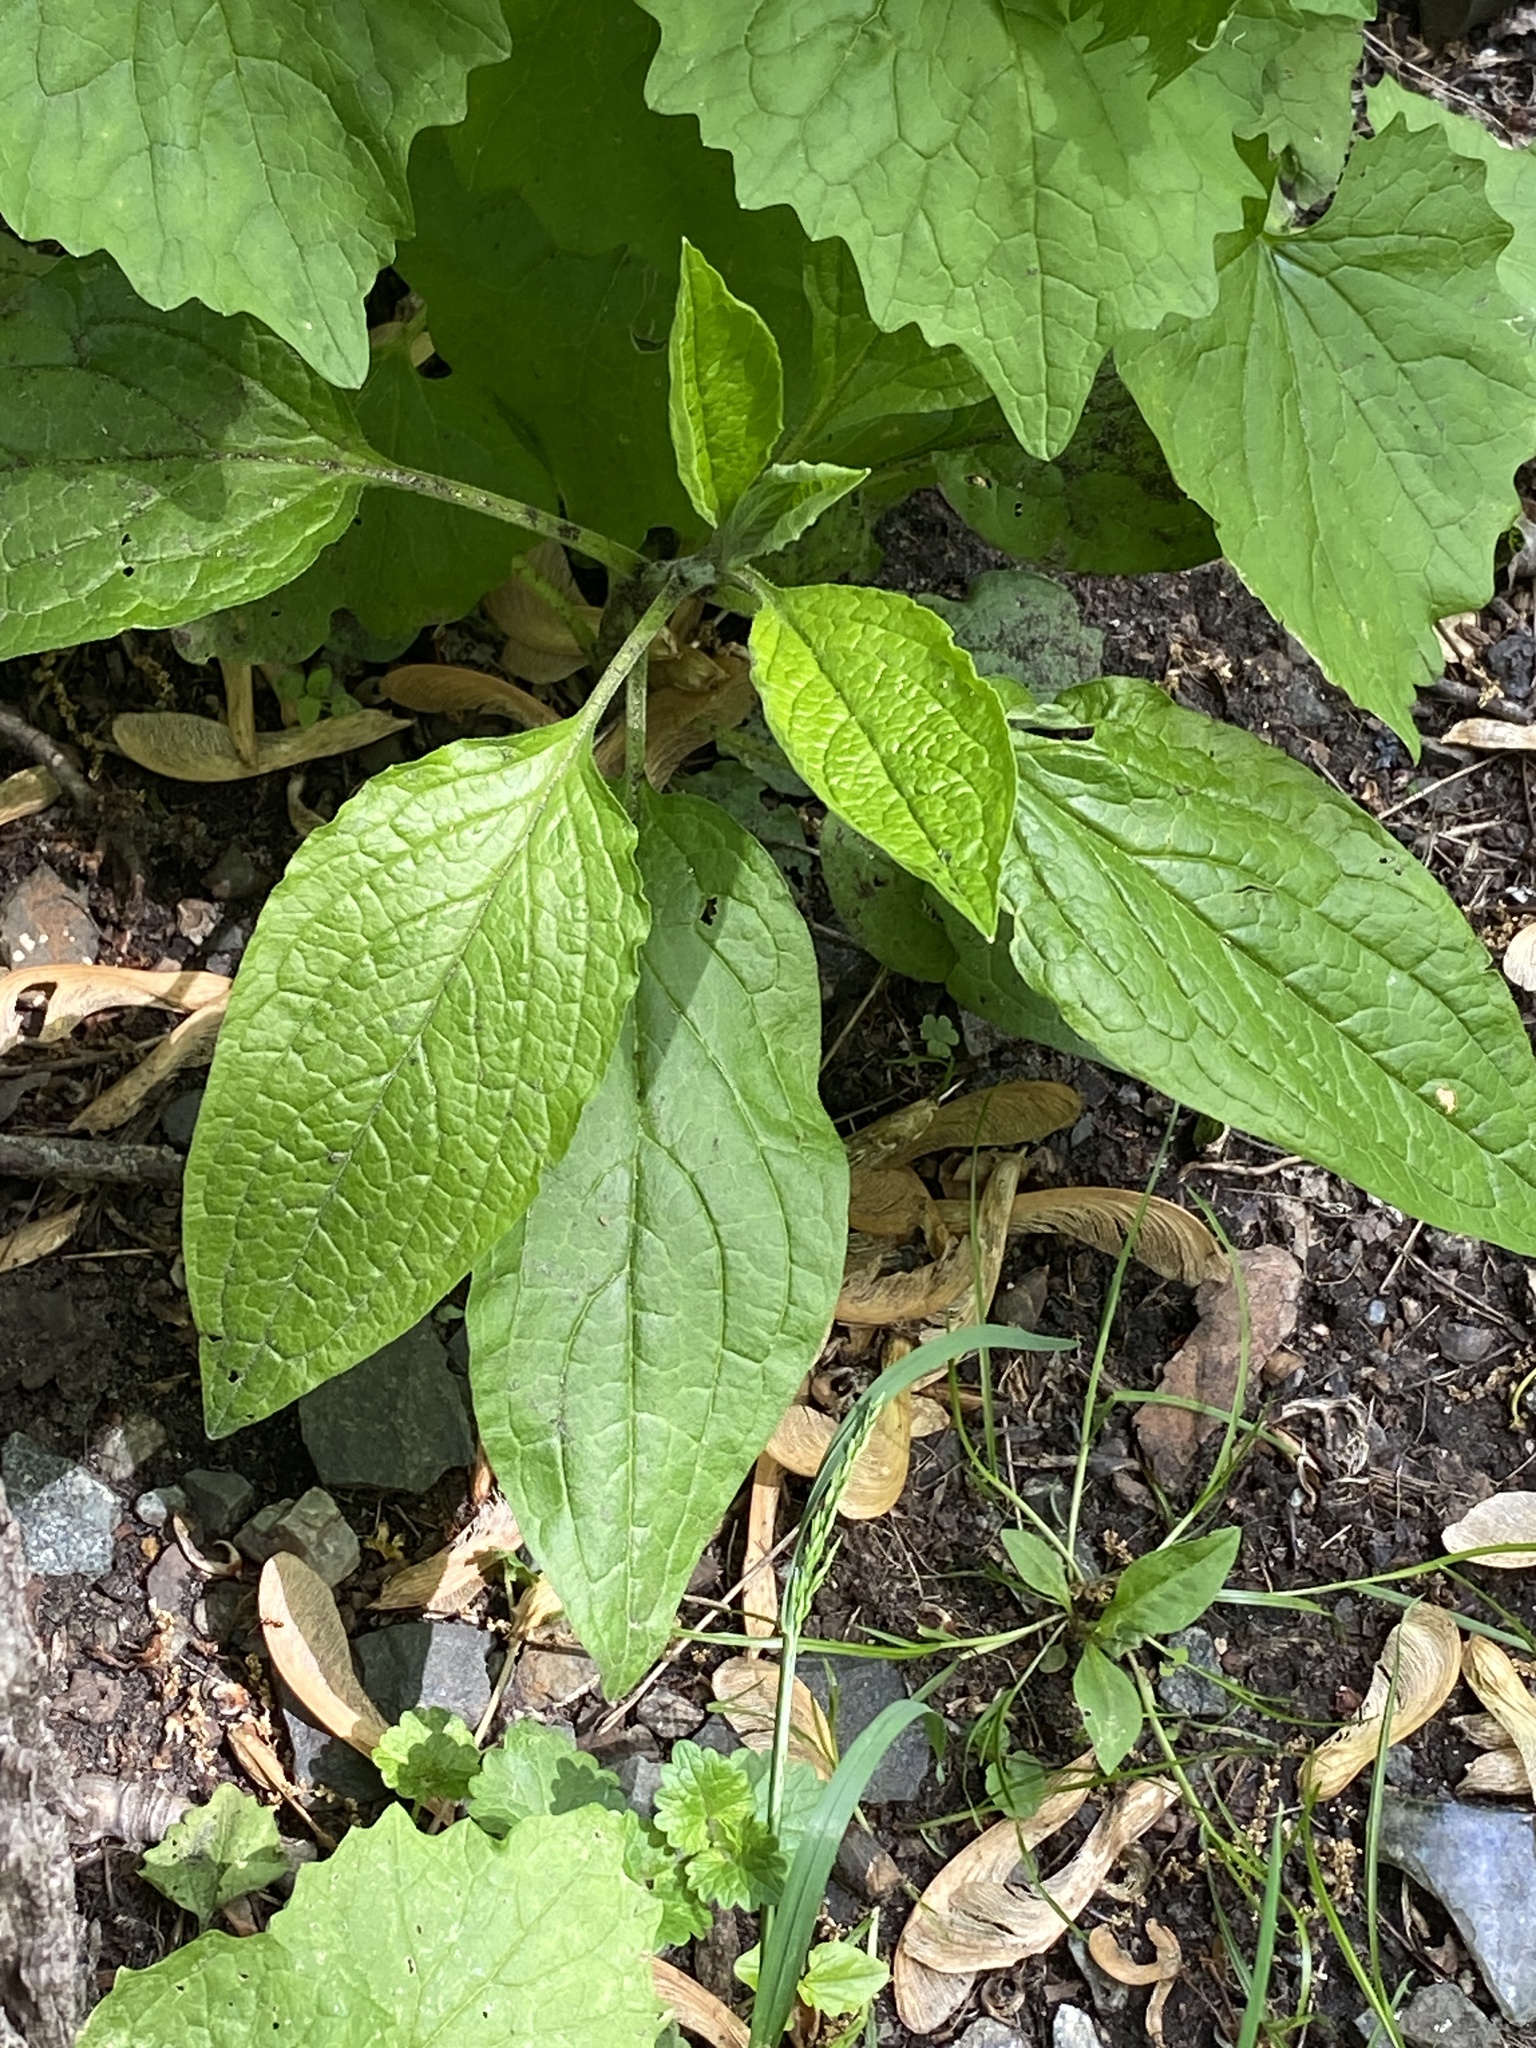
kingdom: Plantae
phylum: Tracheophyta
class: Magnoliopsida
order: Boraginales
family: Boraginaceae
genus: Hackelia
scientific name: Hackelia virginiana
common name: Beggar's-lice
